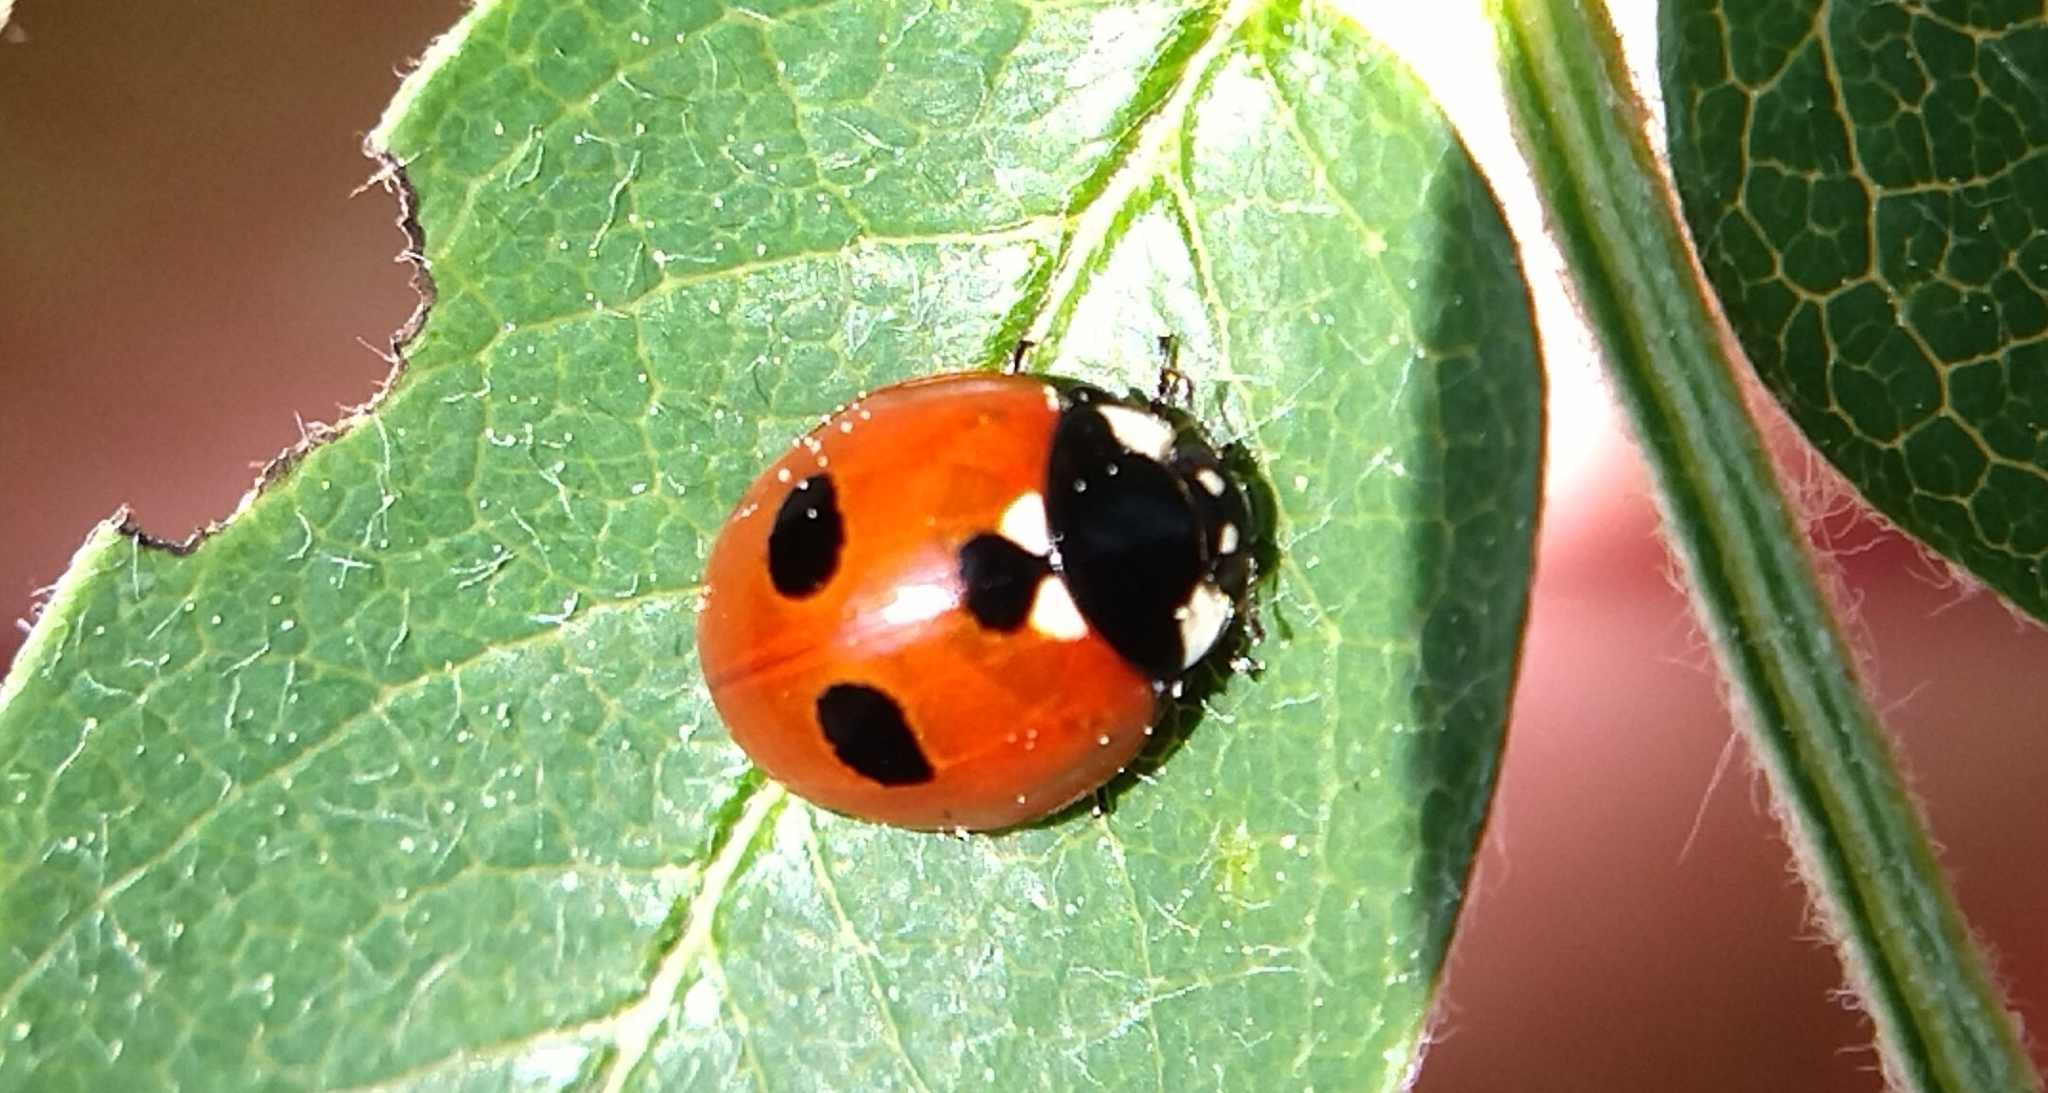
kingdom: Animalia
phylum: Arthropoda
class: Insecta
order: Coleoptera
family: Coccinellidae
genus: Coccinella
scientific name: Coccinella quinquepunctata
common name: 5-spot ladybird
